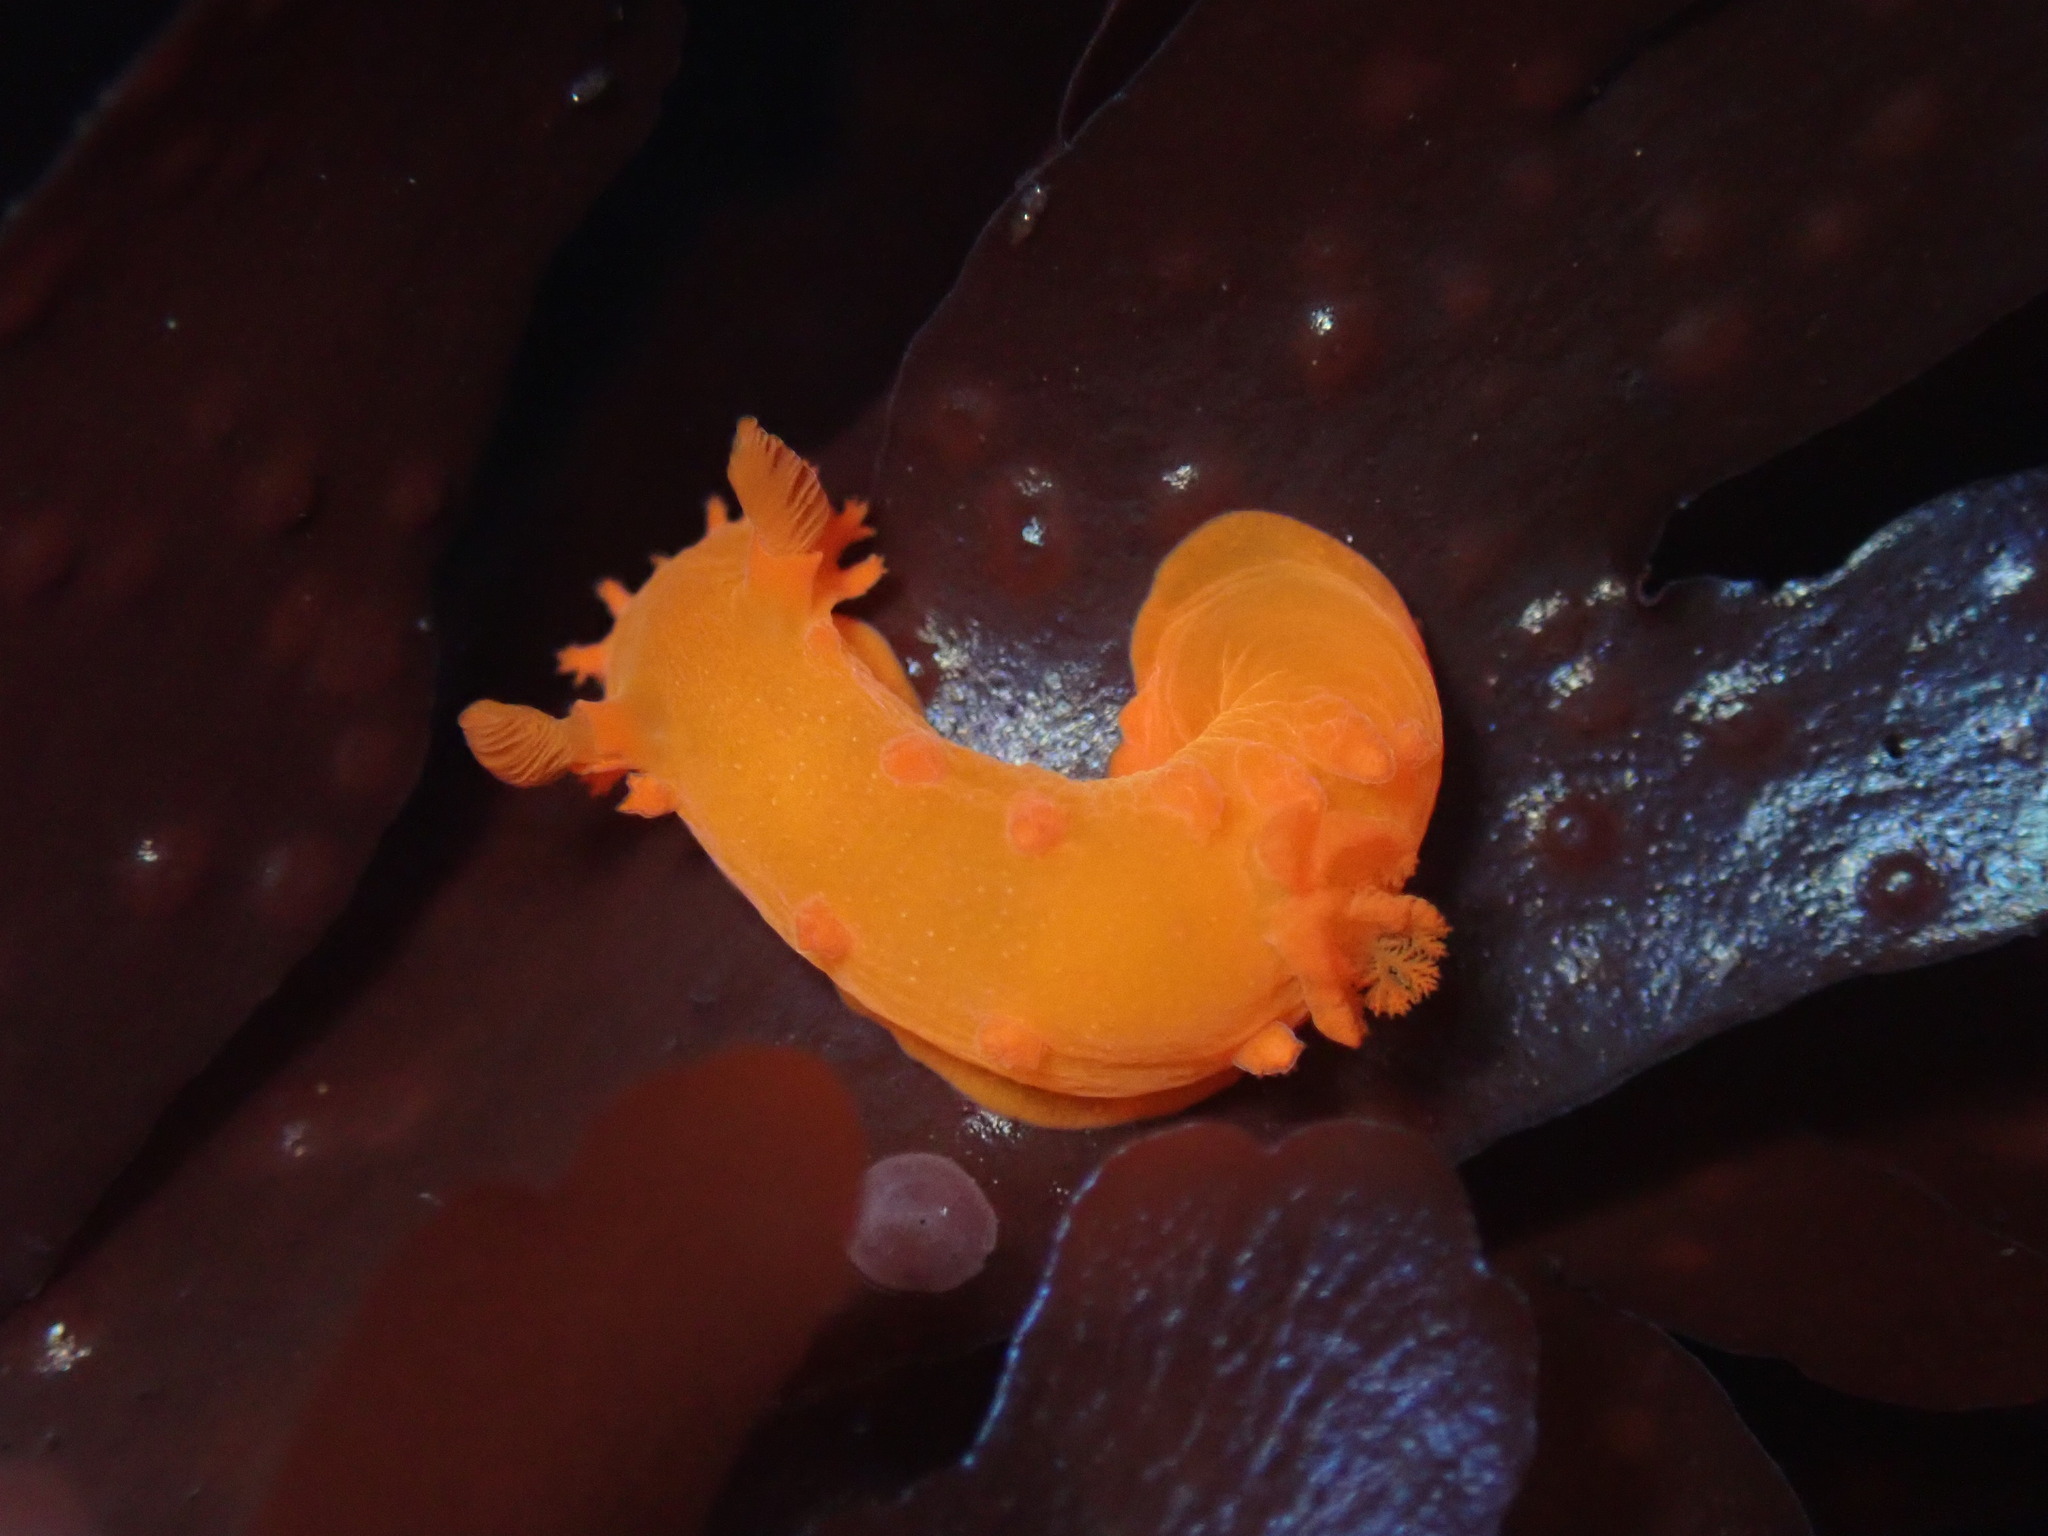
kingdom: Animalia
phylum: Mollusca
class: Gastropoda
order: Nudibranchia
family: Polyceridae
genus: Triopha
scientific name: Triopha maculata
